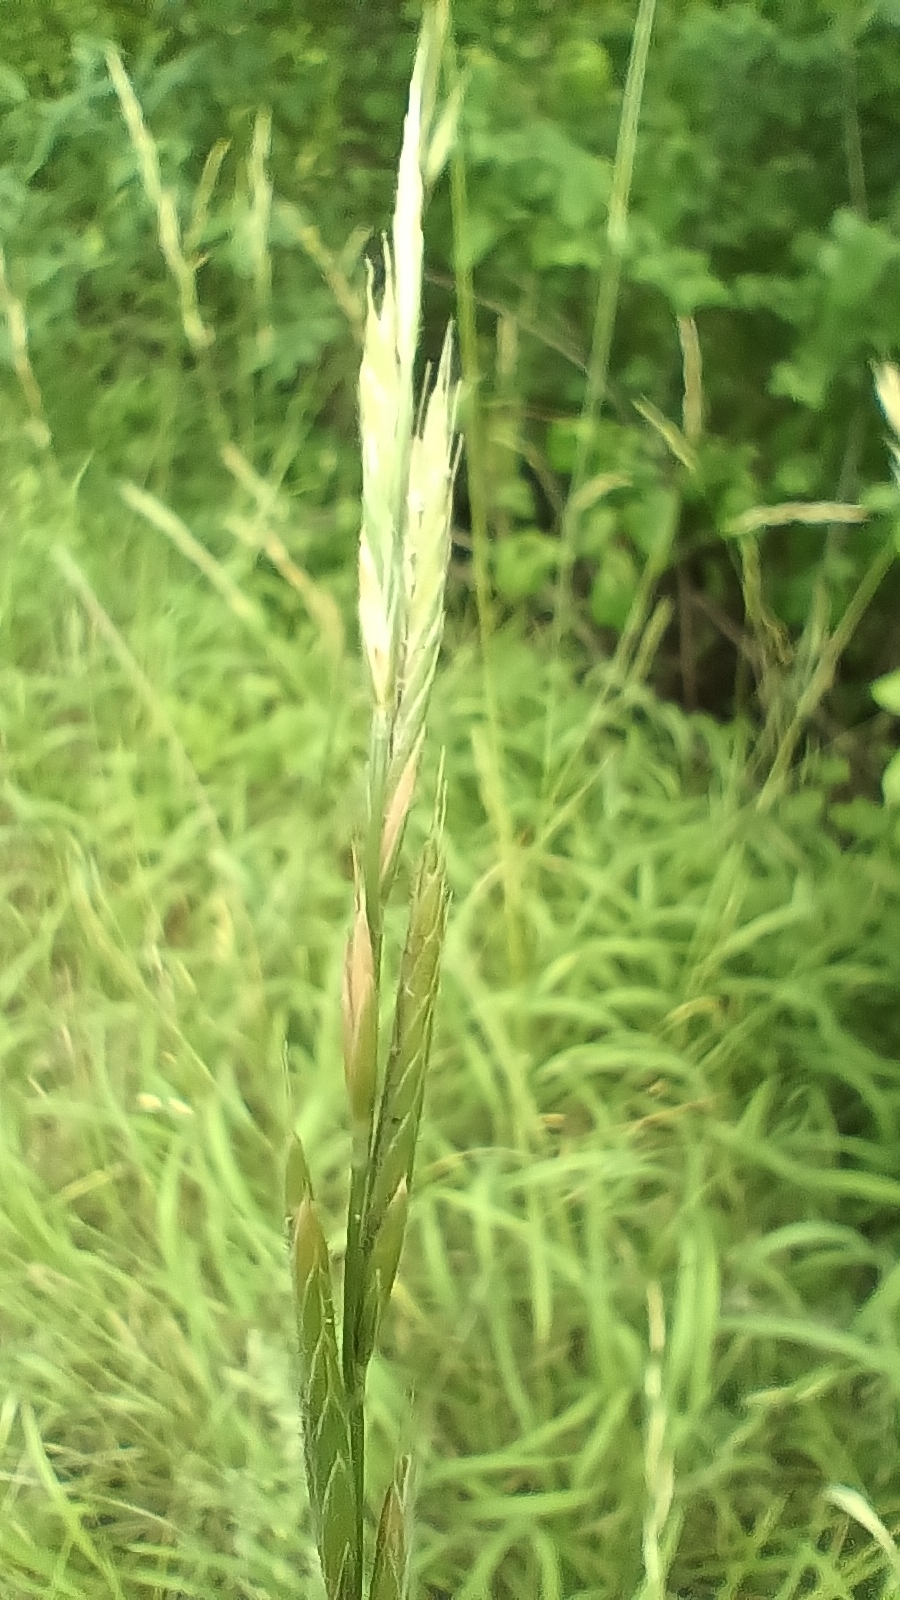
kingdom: Plantae
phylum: Tracheophyta
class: Liliopsida
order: Poales
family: Poaceae
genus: Brachypodium
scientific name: Brachypodium pinnatum
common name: Tor grass
